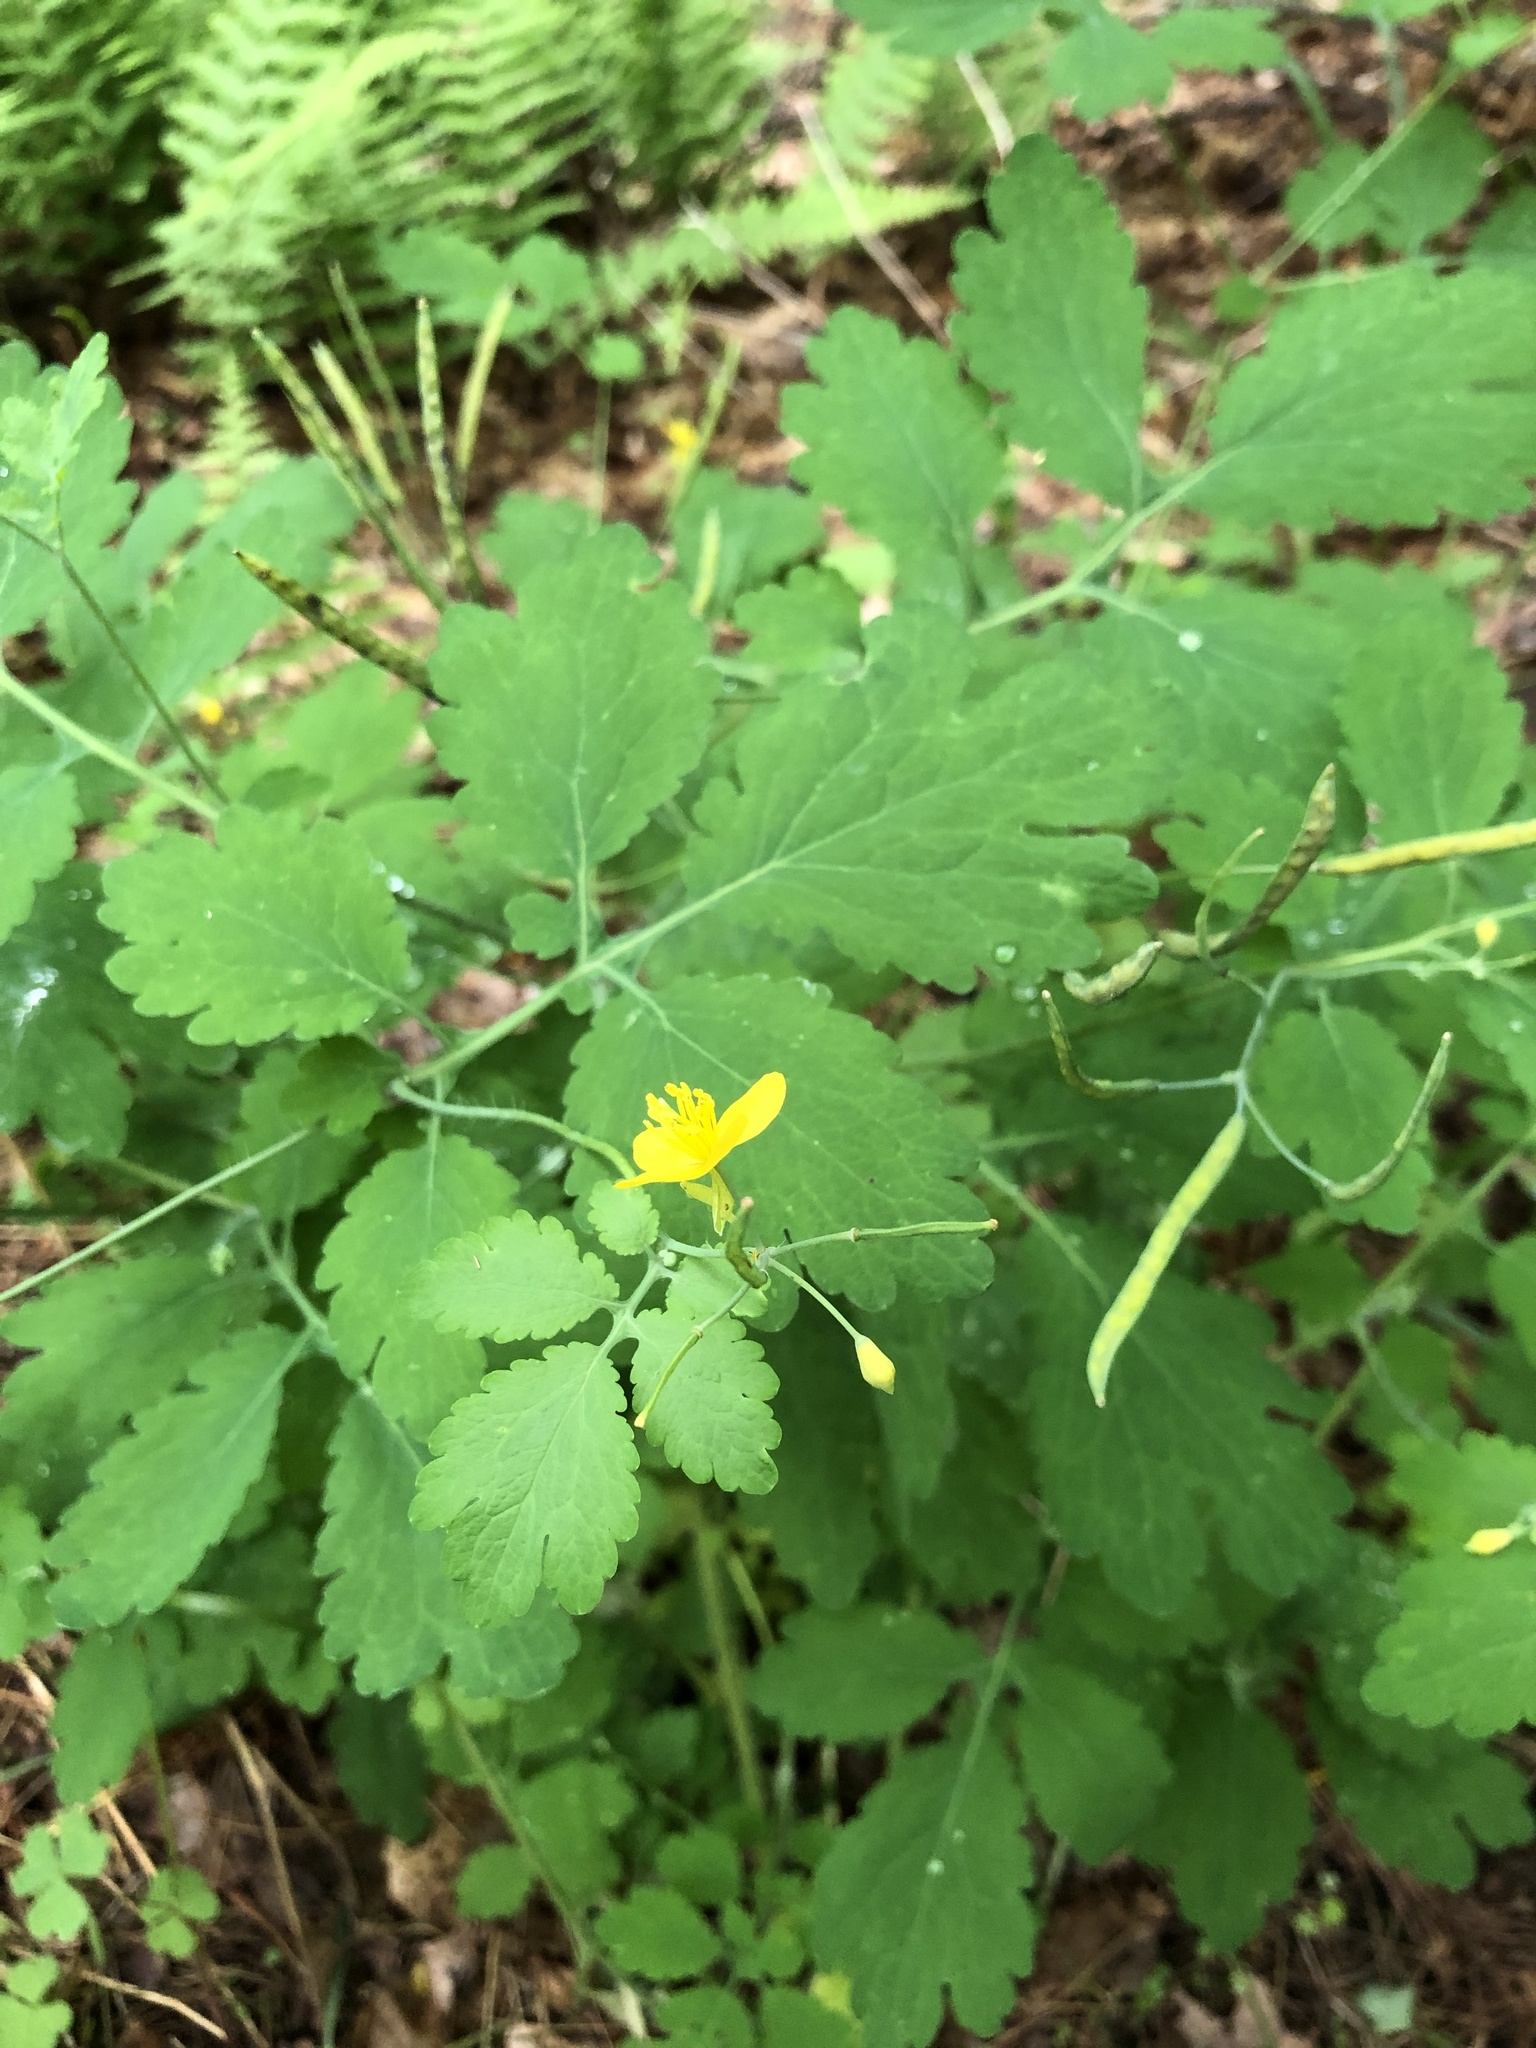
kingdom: Plantae
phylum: Tracheophyta
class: Magnoliopsida
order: Ranunculales
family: Papaveraceae
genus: Chelidonium
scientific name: Chelidonium majus
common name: Greater celandine
